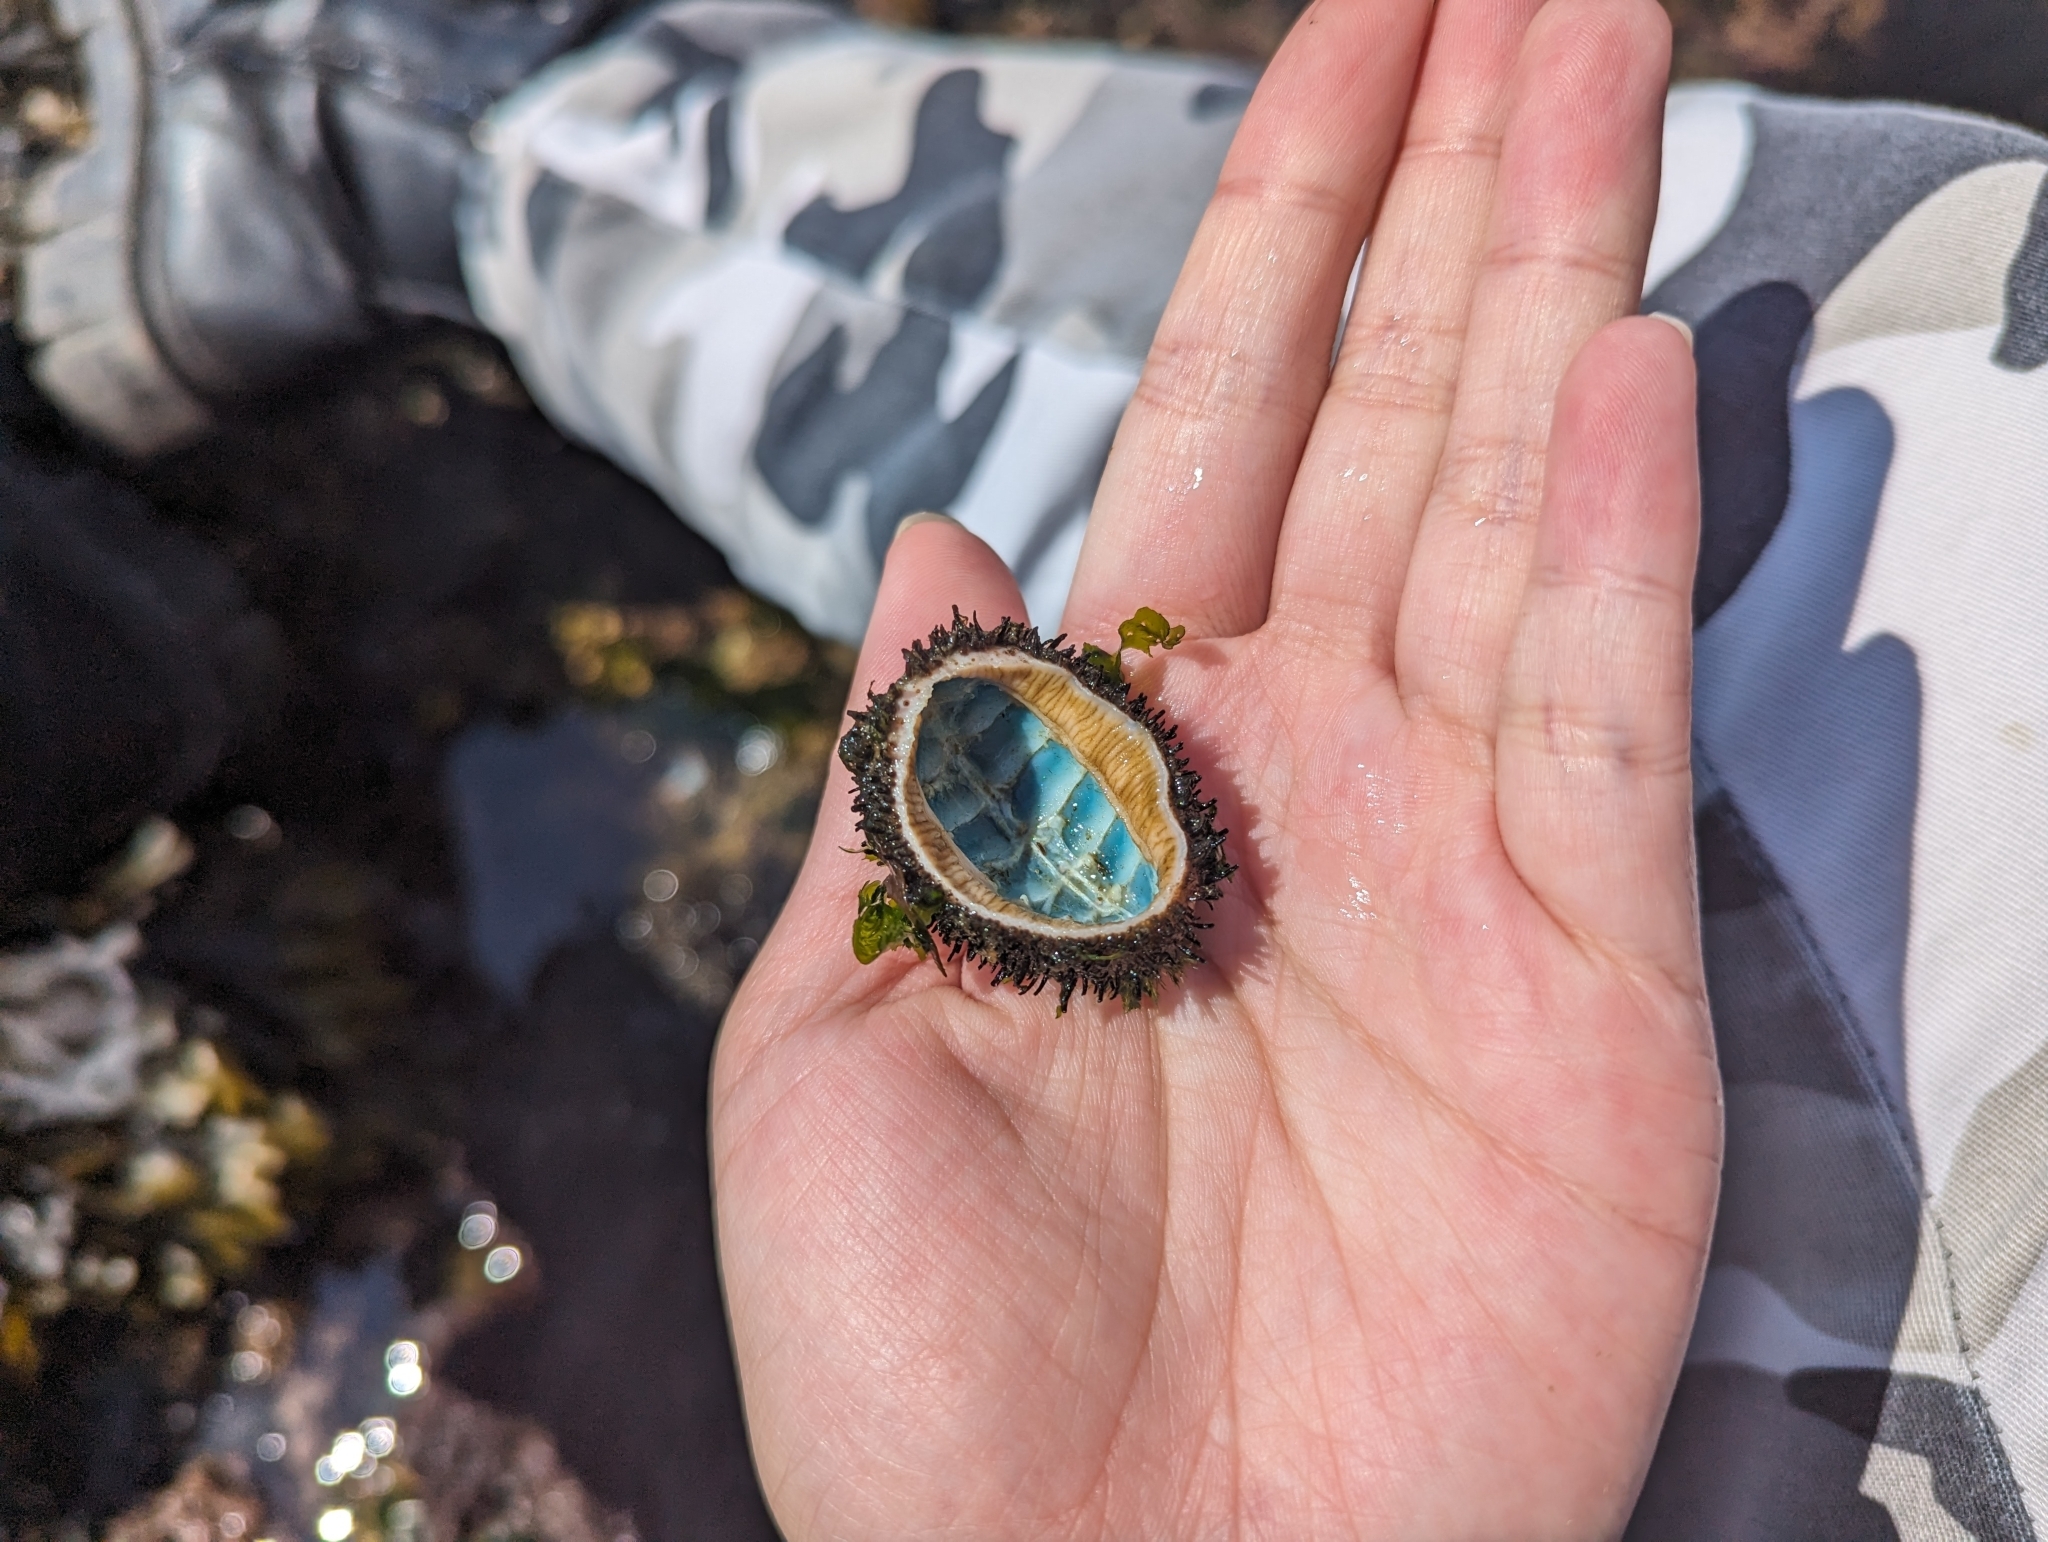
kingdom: Animalia
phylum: Mollusca
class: Polyplacophora
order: Chitonida
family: Mopaliidae
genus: Mopalia
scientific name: Mopalia muscosa
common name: Mossy chiton
